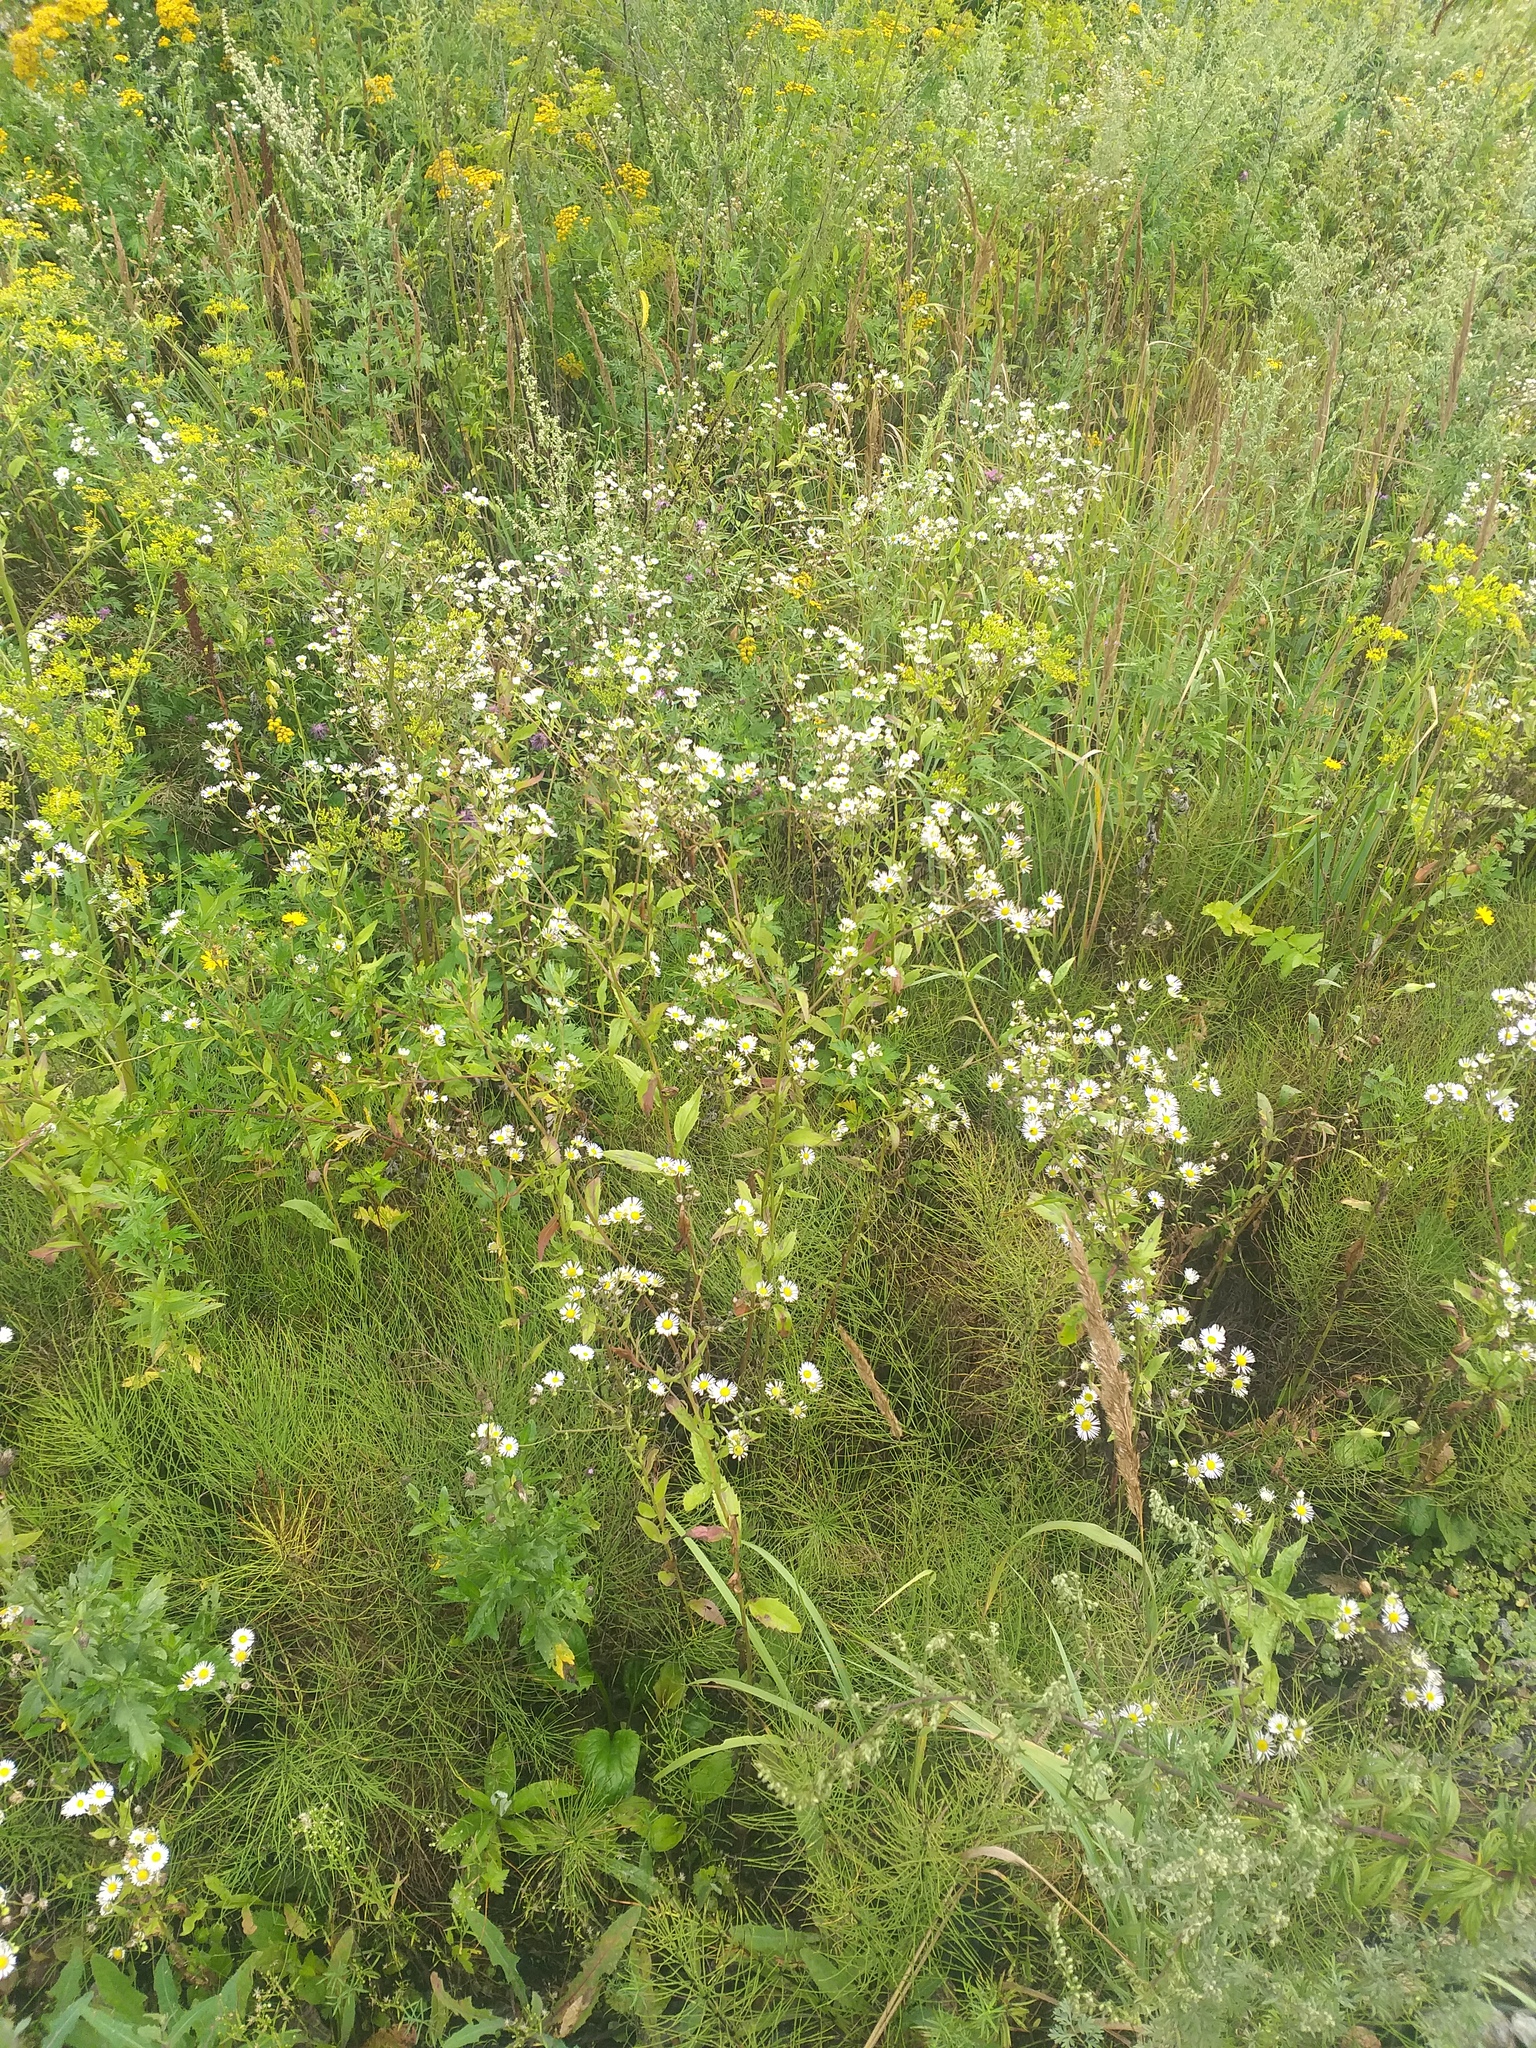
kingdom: Plantae
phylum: Tracheophyta
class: Magnoliopsida
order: Asterales
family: Asteraceae
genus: Erigeron
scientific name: Erigeron annuus
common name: Tall fleabane
